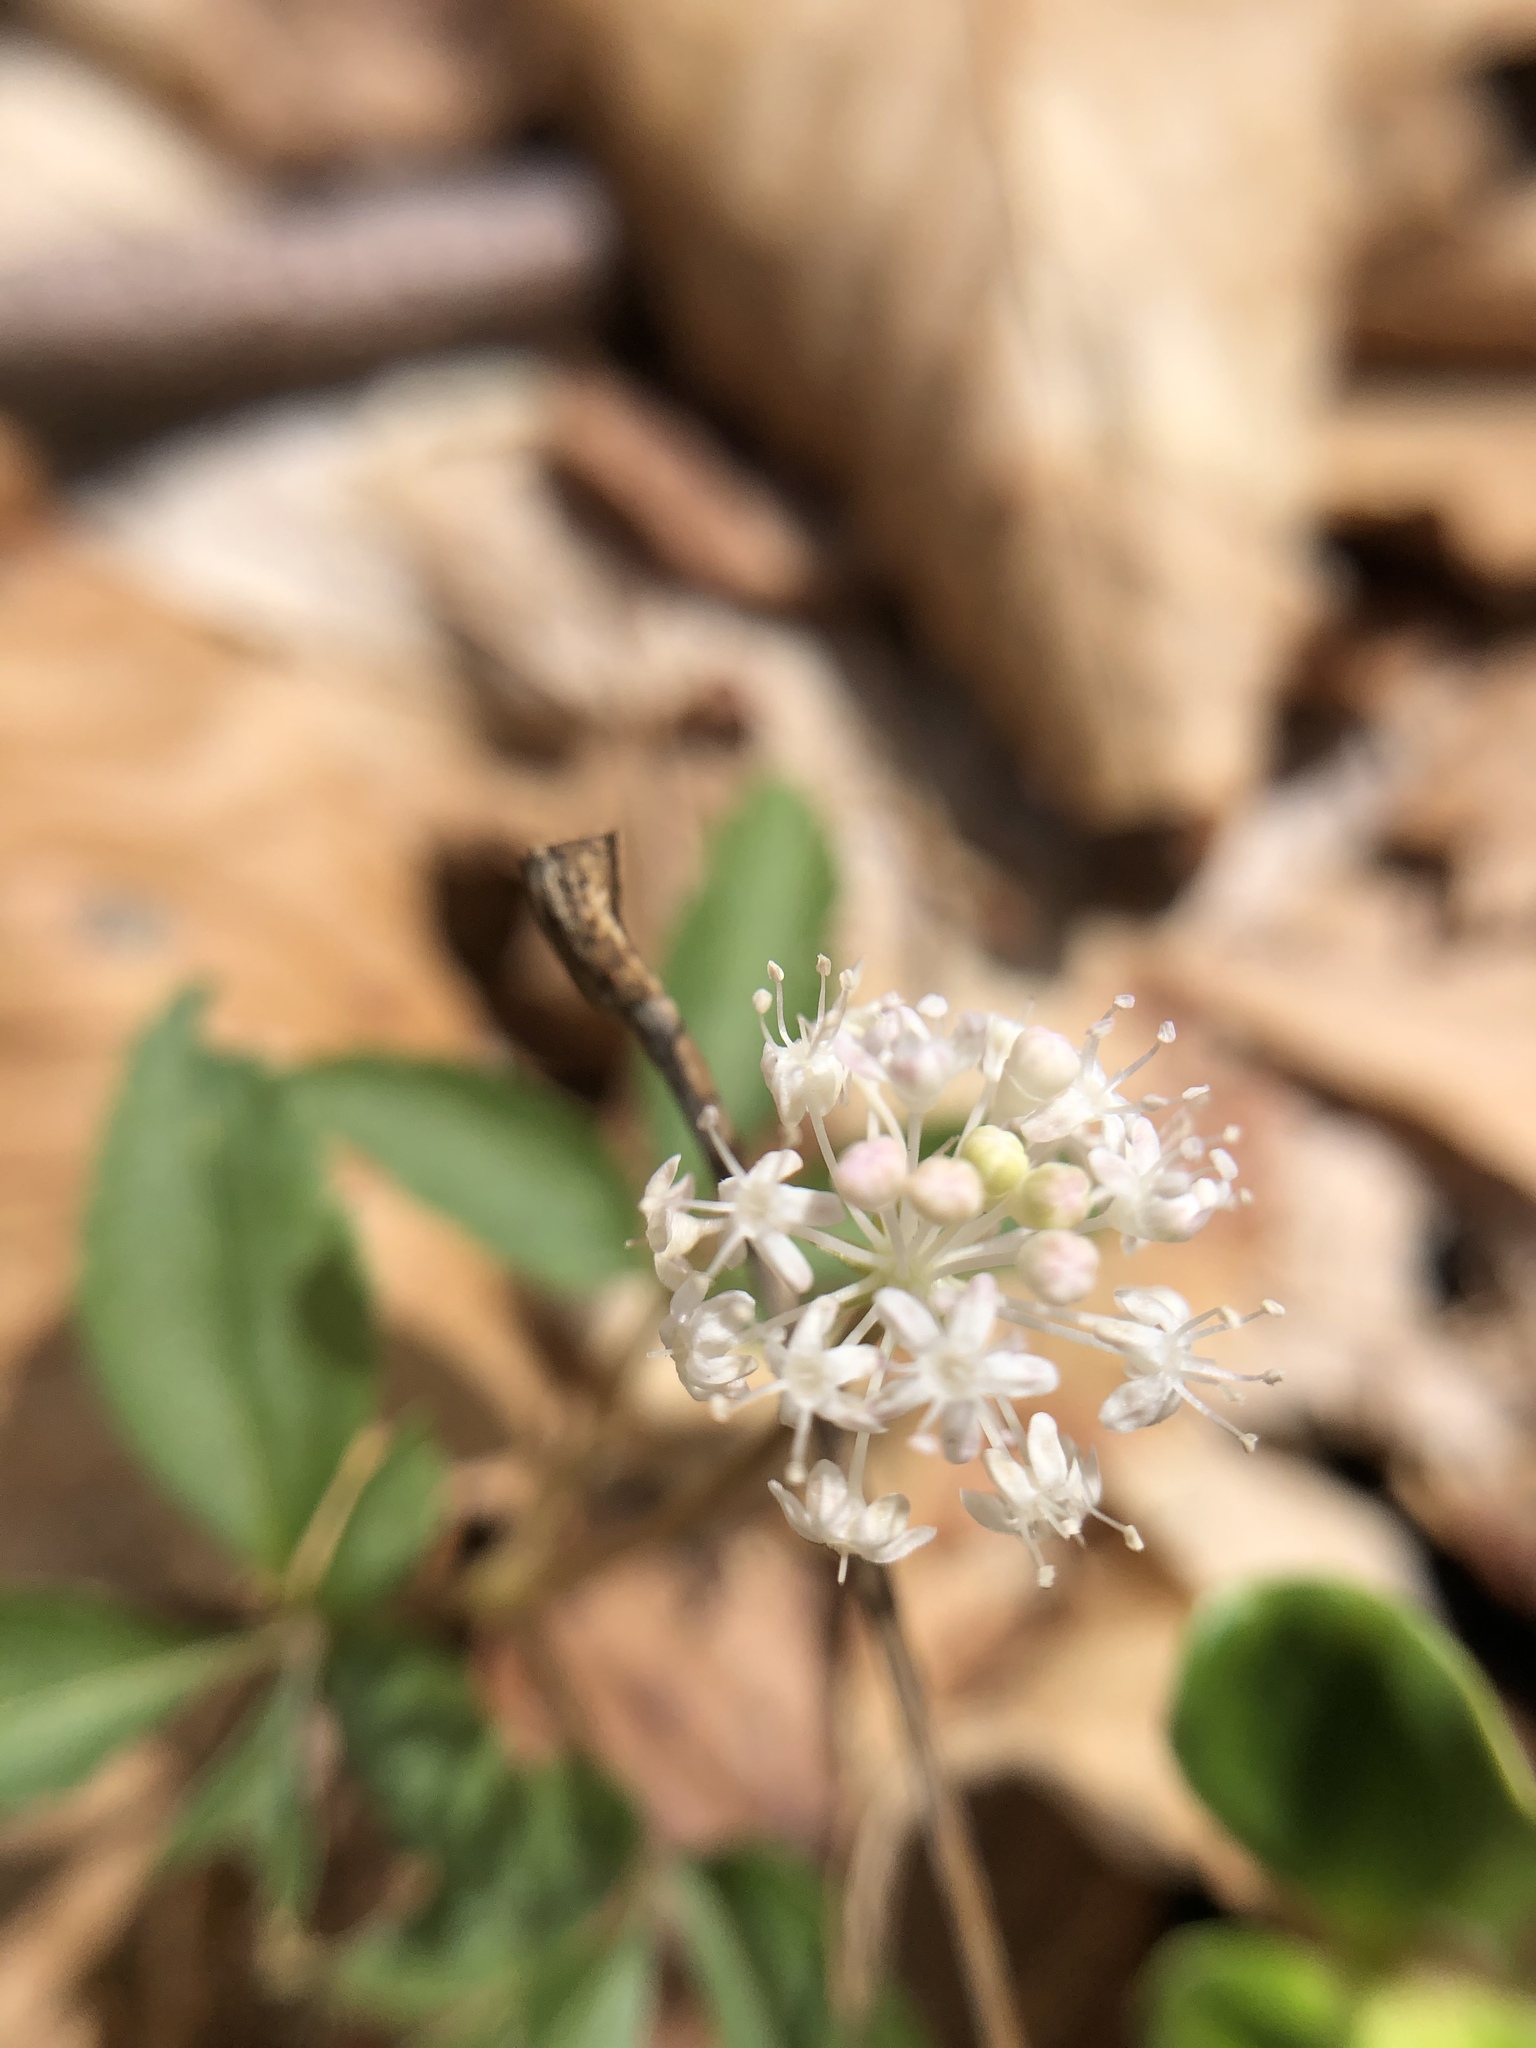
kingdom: Plantae
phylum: Tracheophyta
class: Magnoliopsida
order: Apiales
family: Araliaceae
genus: Panax
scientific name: Panax trifolius
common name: Dwarf ginseng
